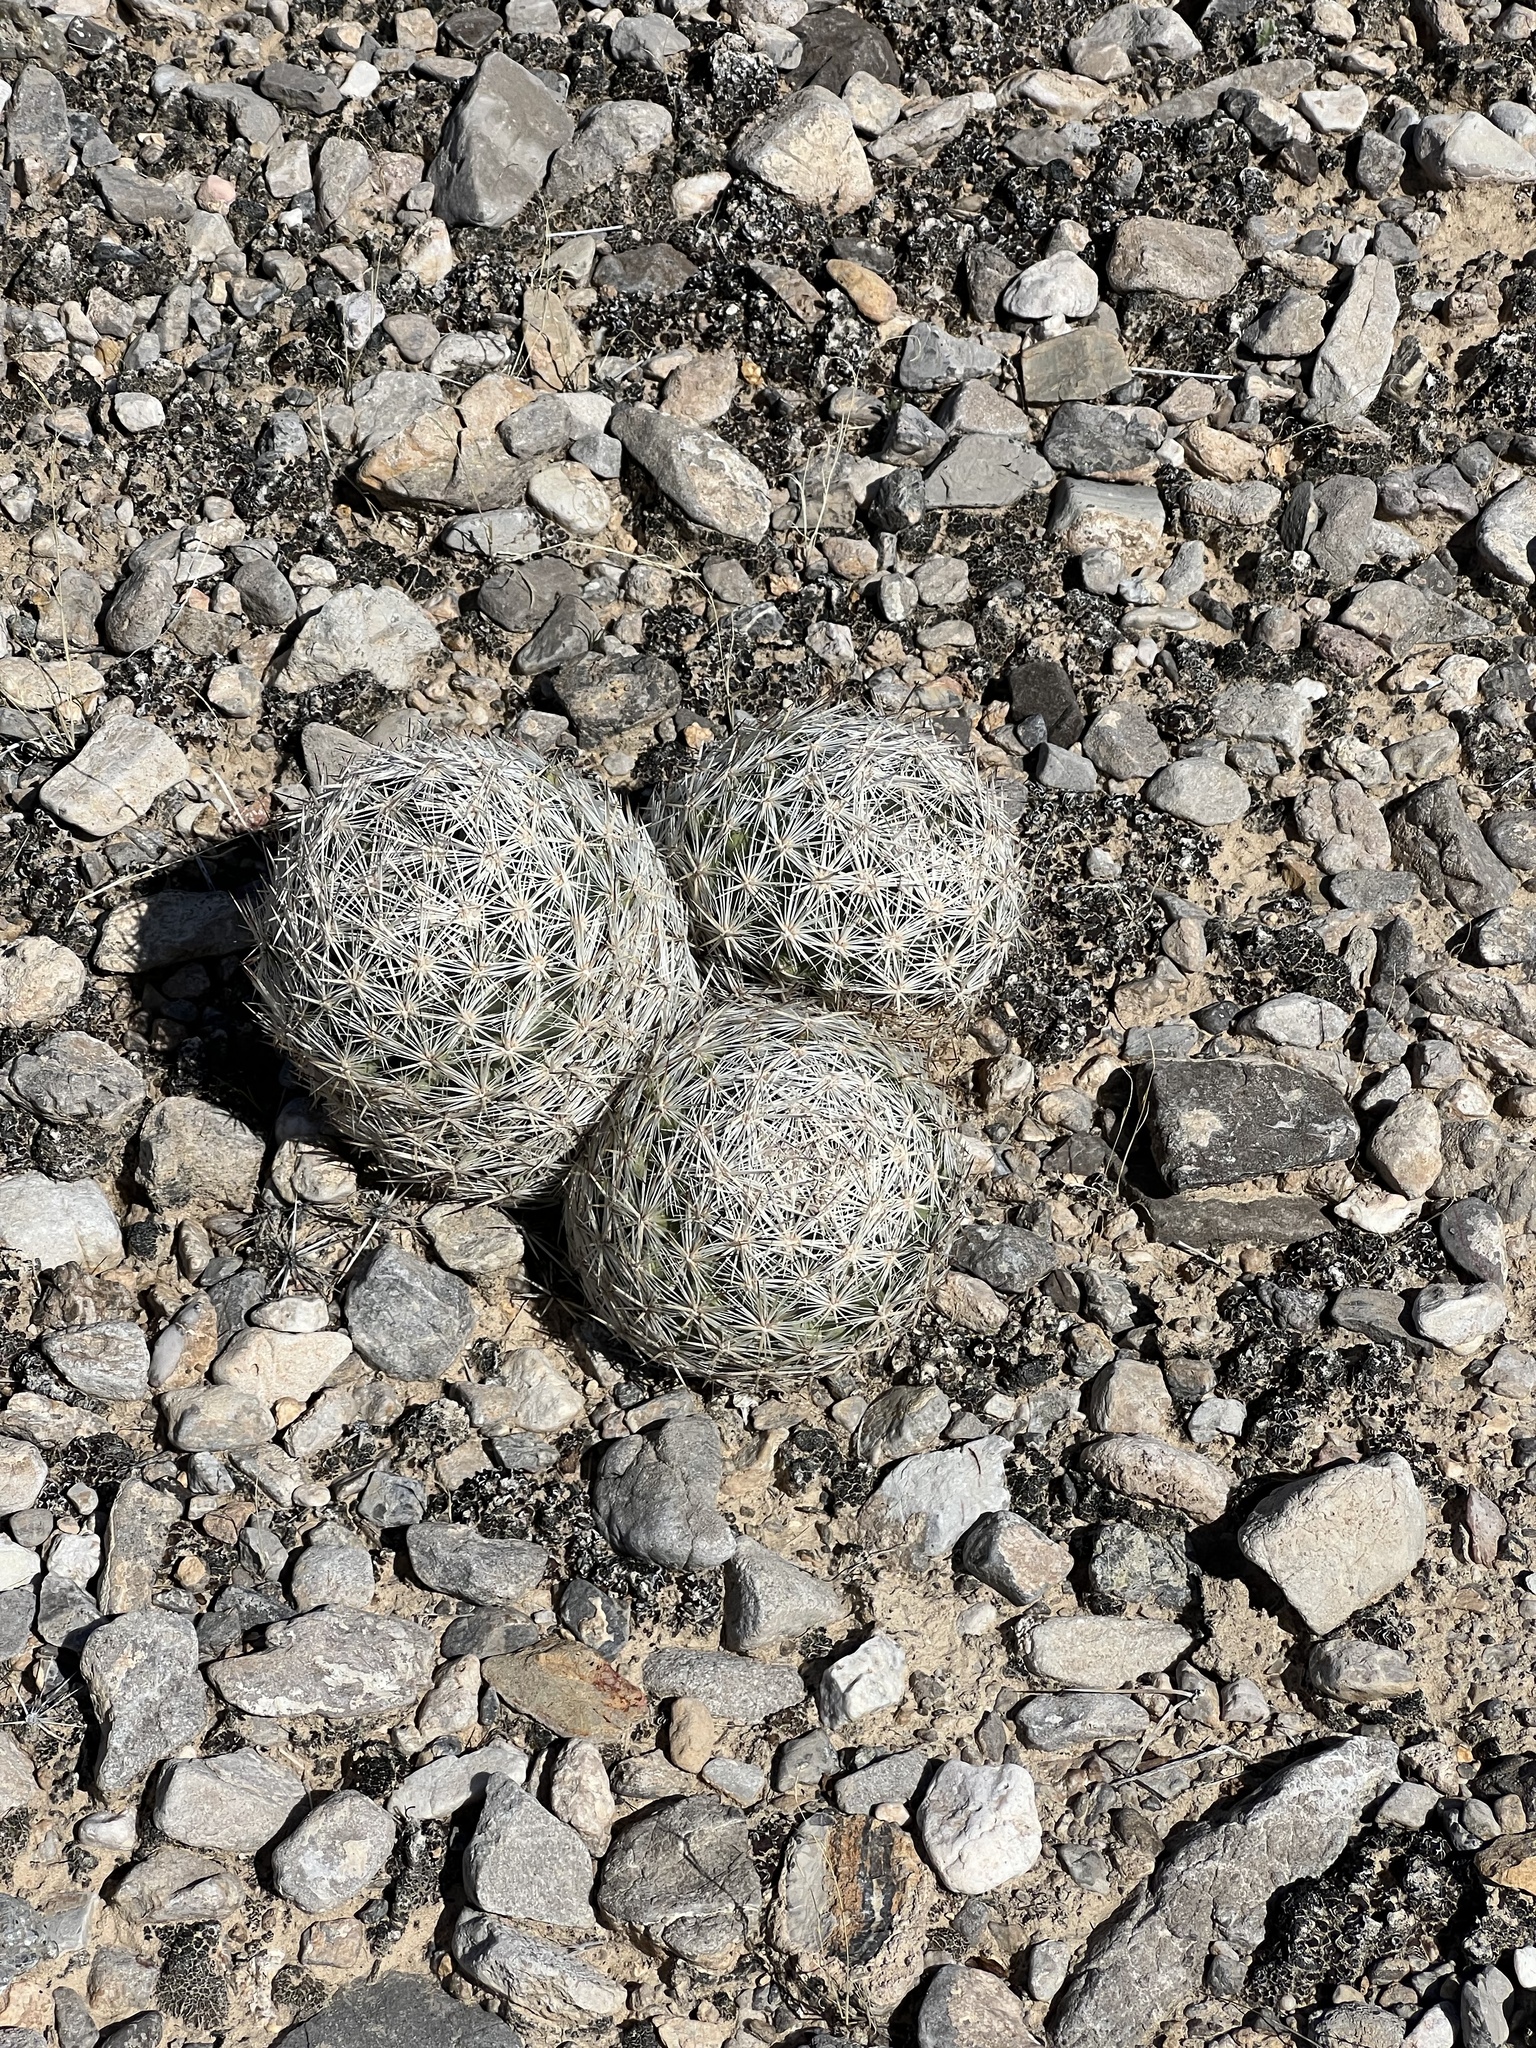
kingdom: Plantae
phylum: Tracheophyta
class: Magnoliopsida
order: Caryophyllales
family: Cactaceae
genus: Pelecyphora
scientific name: Pelecyphora dasyacantha
